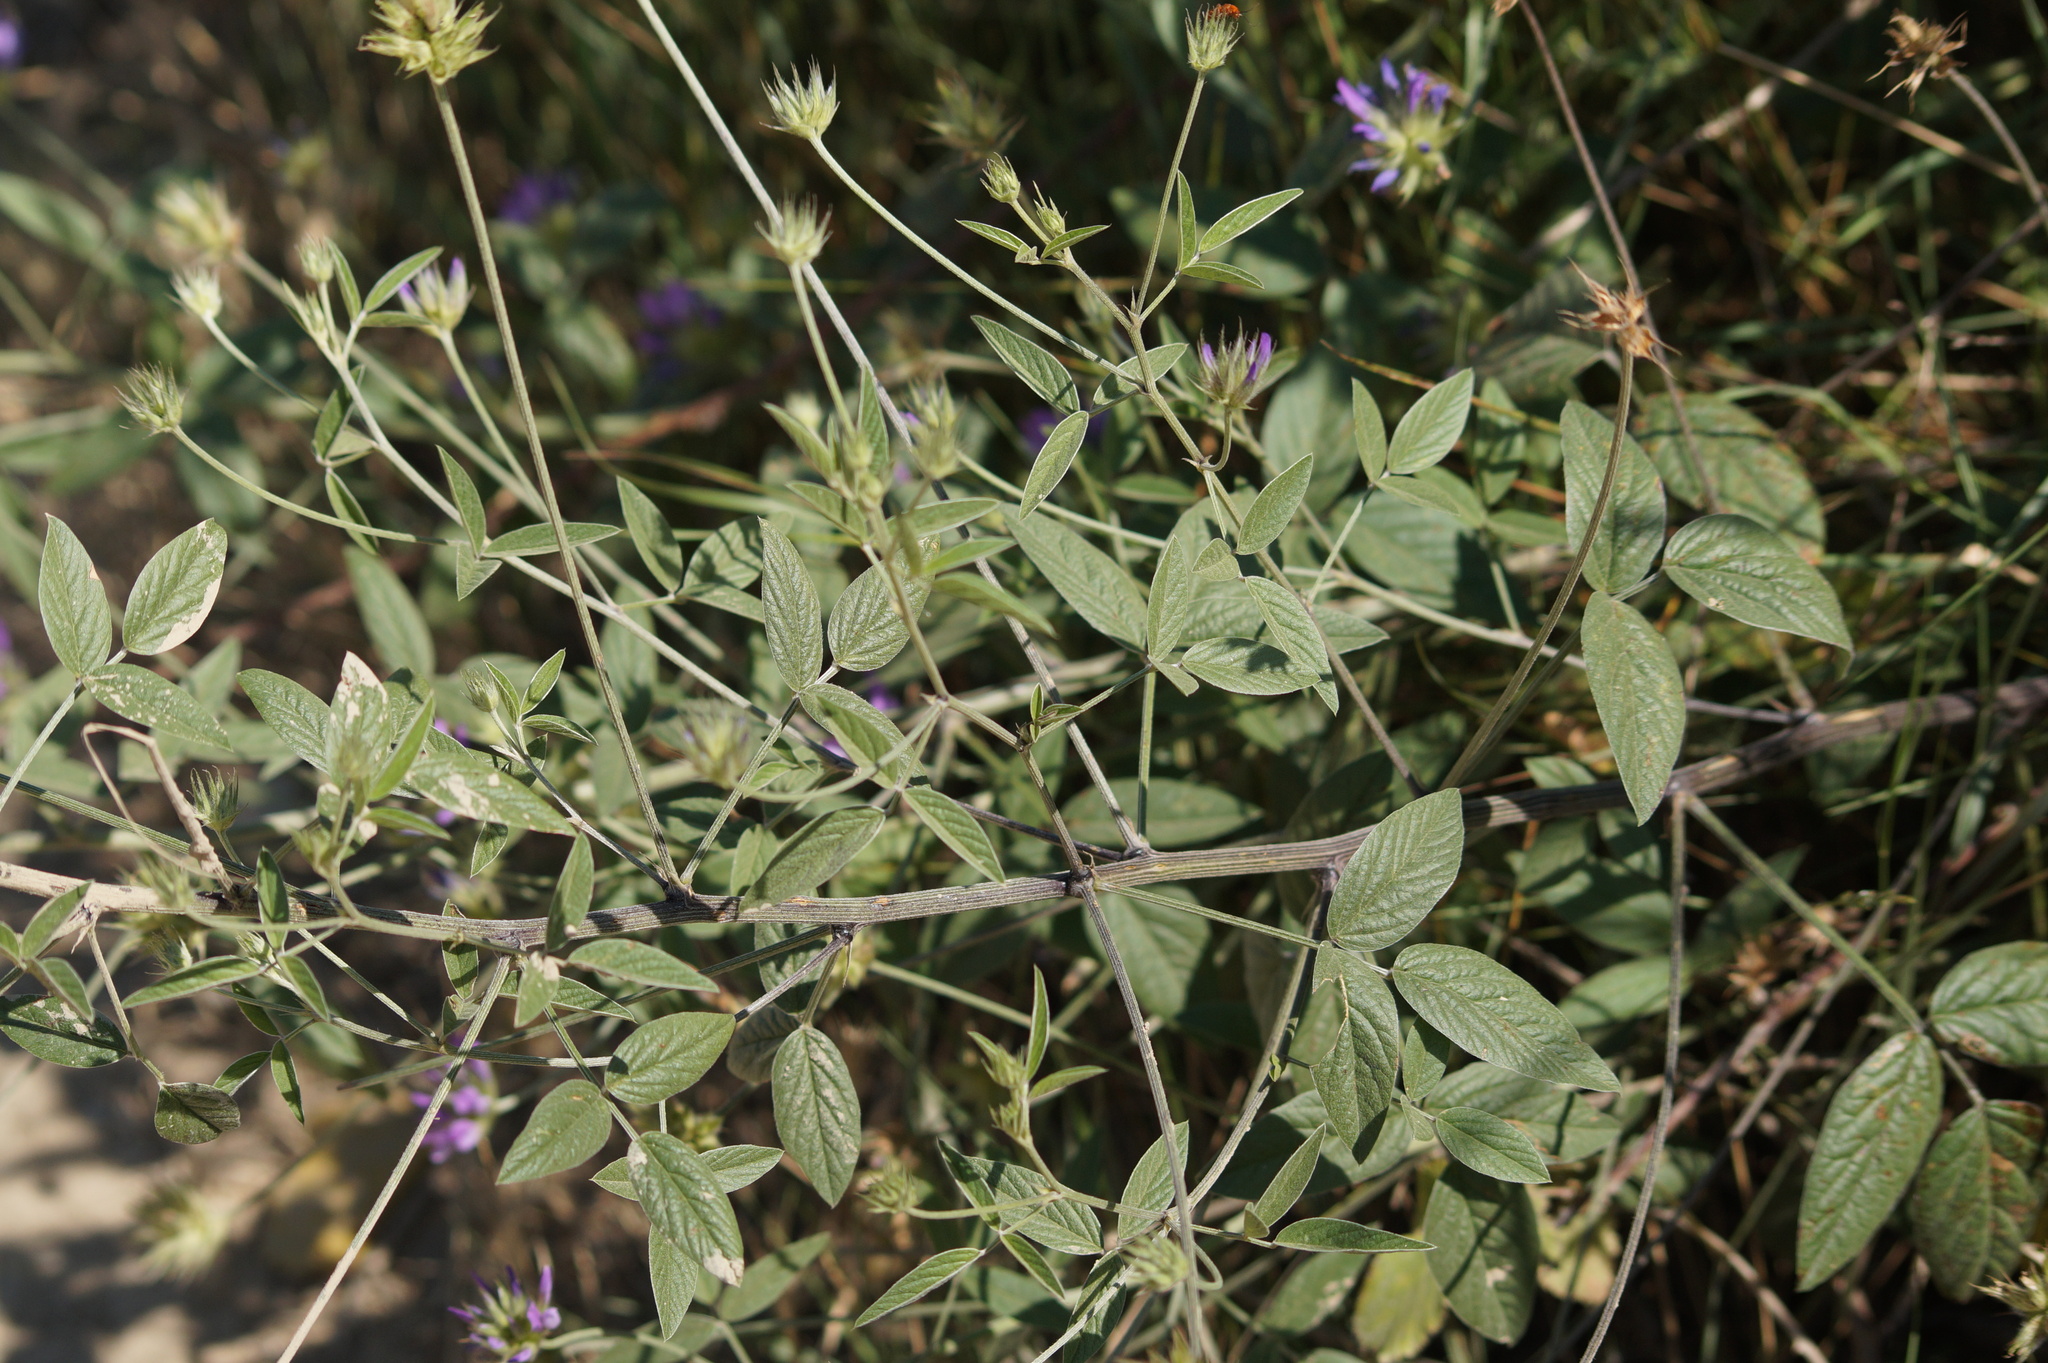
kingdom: Plantae
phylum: Tracheophyta
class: Magnoliopsida
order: Fabales
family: Fabaceae
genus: Bituminaria
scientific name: Bituminaria bituminosa
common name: Arabian pea
